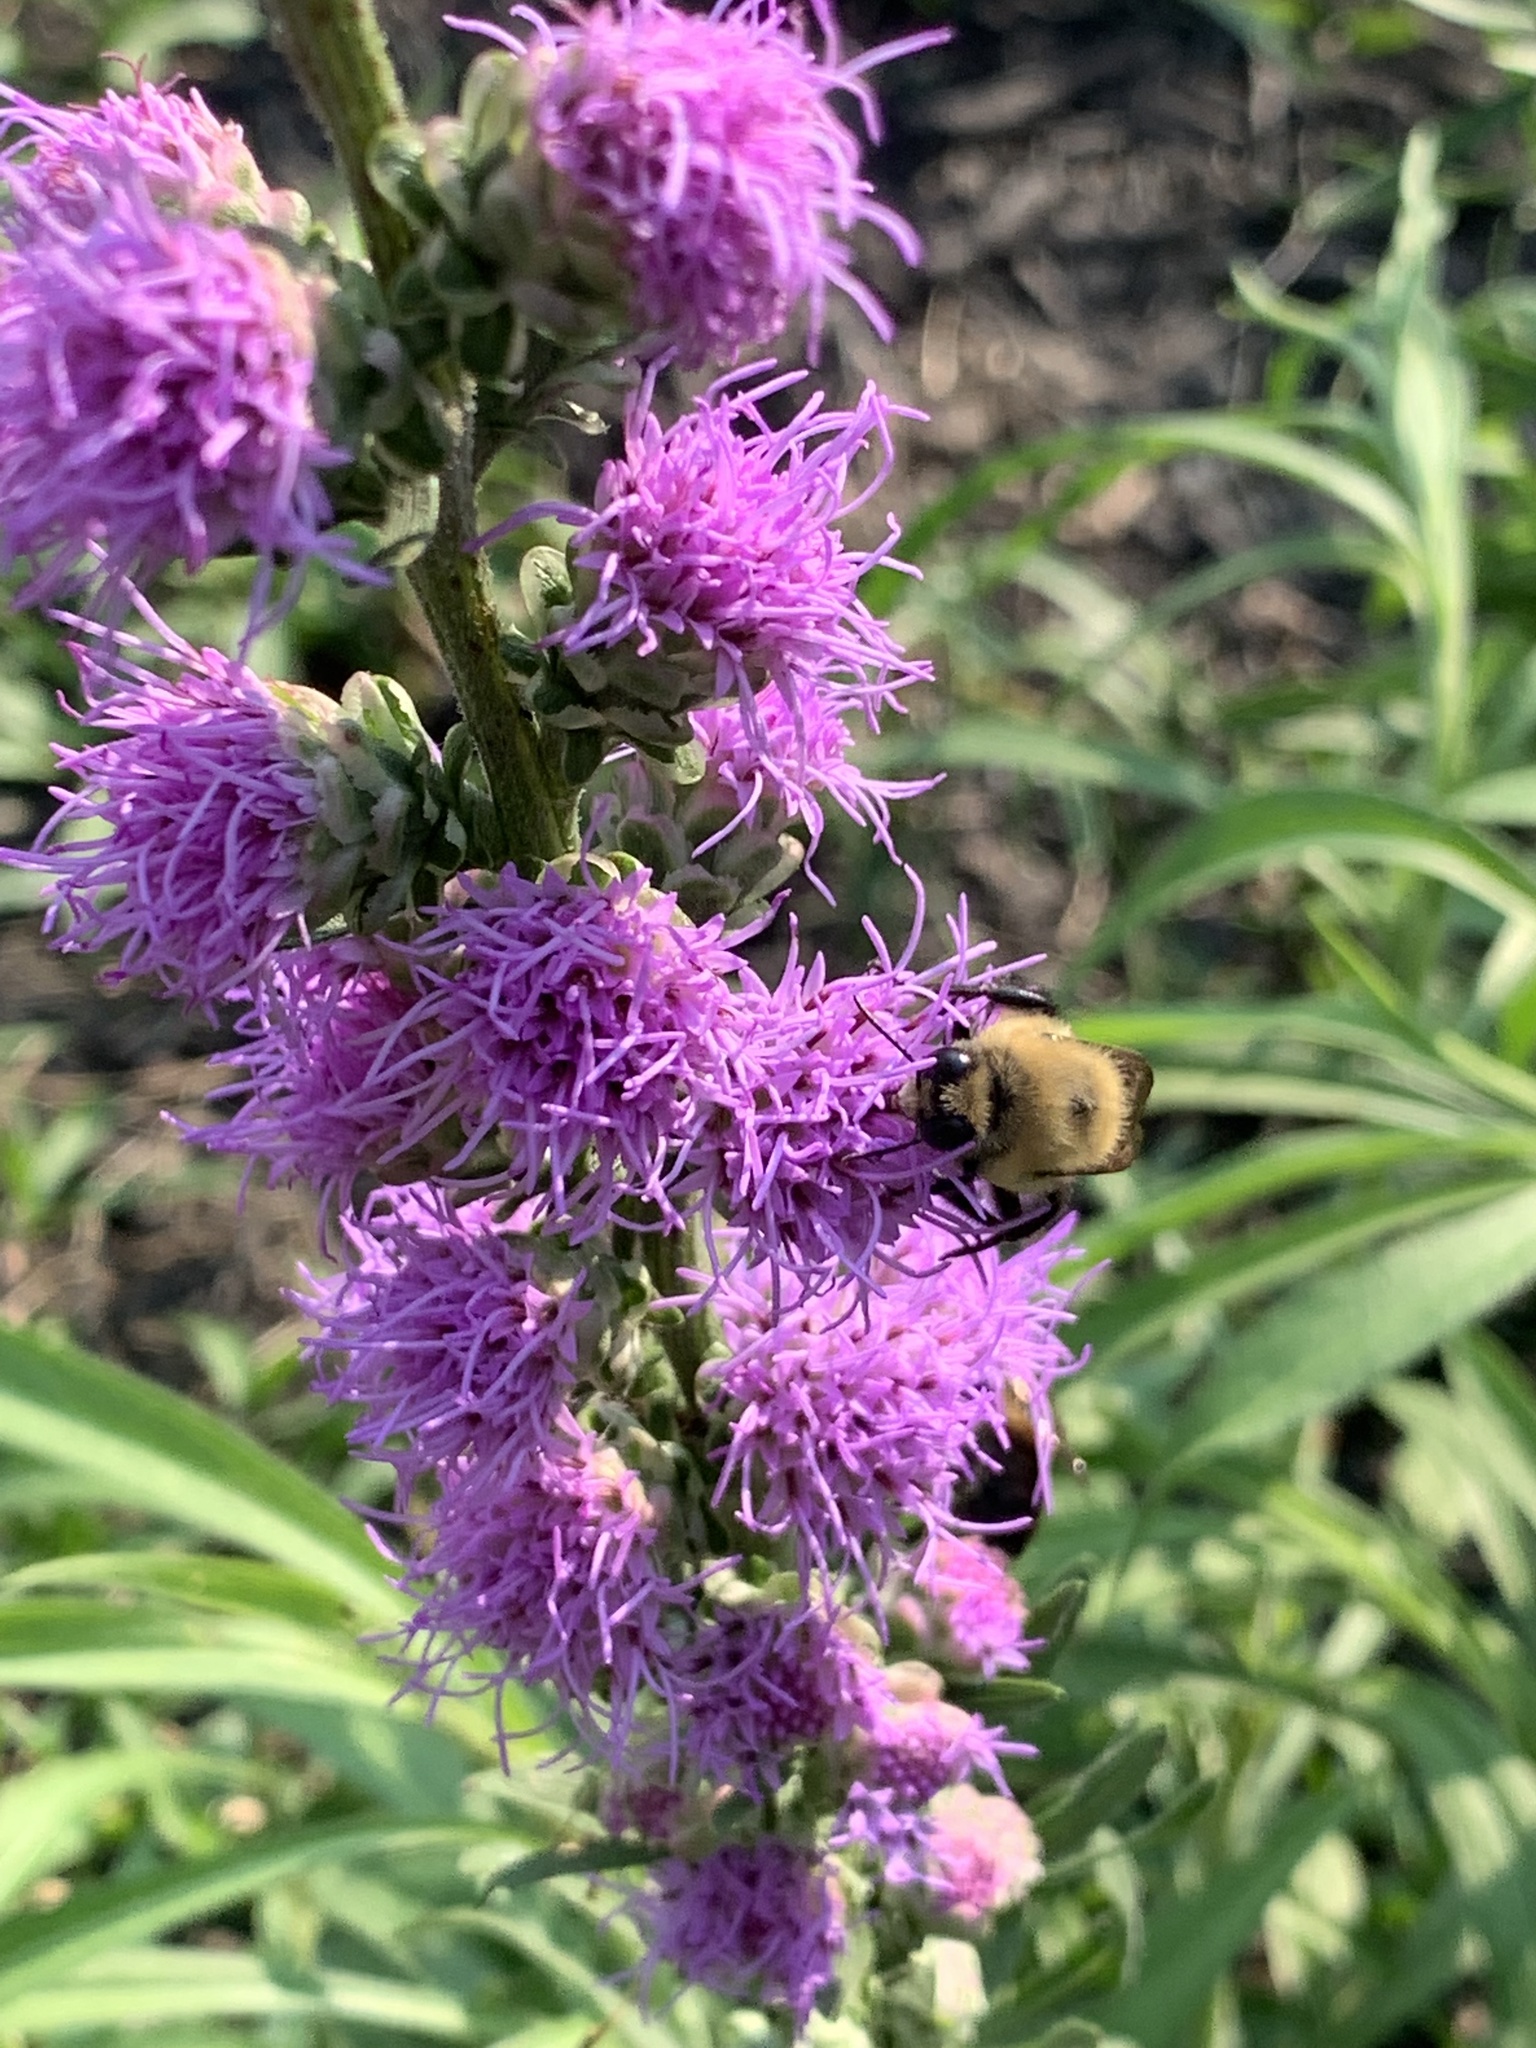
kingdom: Animalia
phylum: Arthropoda
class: Insecta
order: Hymenoptera
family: Apidae
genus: Bombus
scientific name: Bombus griseocollis
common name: Brown-belted bumble bee
